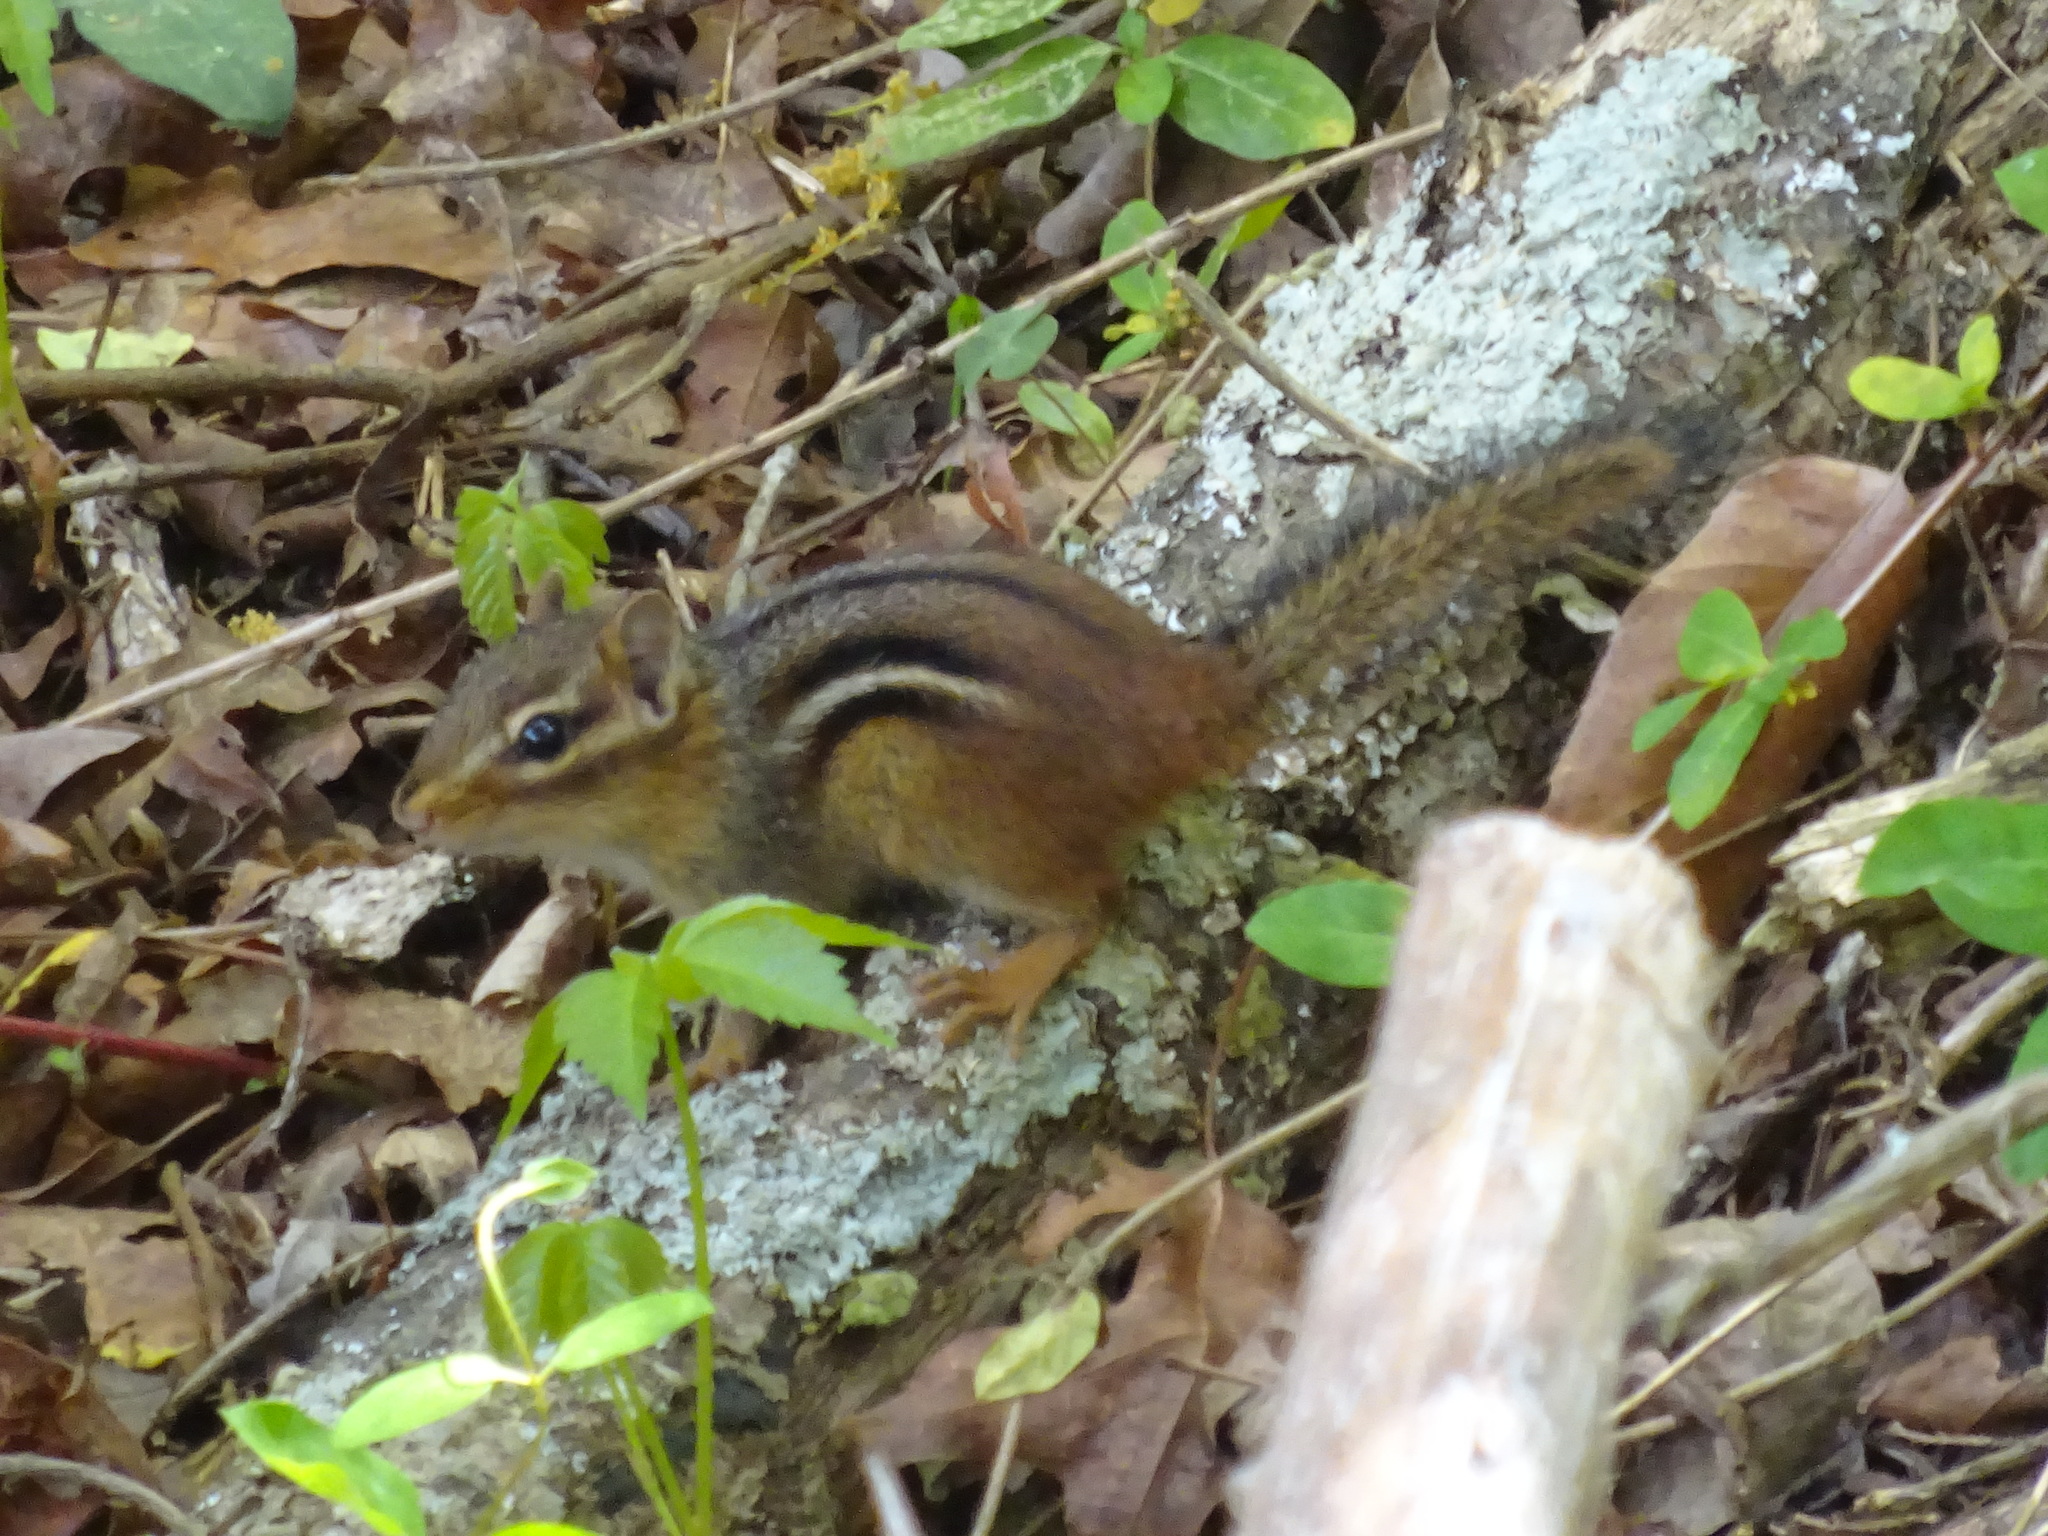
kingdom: Animalia
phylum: Chordata
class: Mammalia
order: Rodentia
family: Sciuridae
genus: Tamias
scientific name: Tamias striatus
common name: Eastern chipmunk
